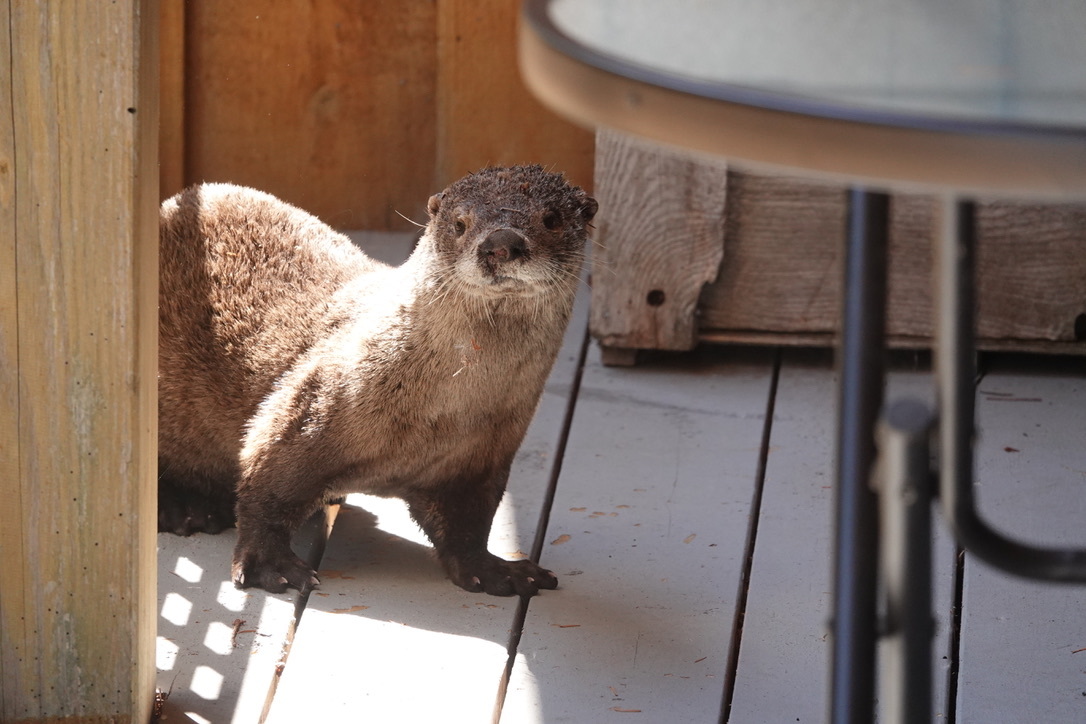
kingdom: Animalia
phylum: Chordata
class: Mammalia
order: Carnivora
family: Mustelidae
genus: Lontra
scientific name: Lontra canadensis
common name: North american river otter
